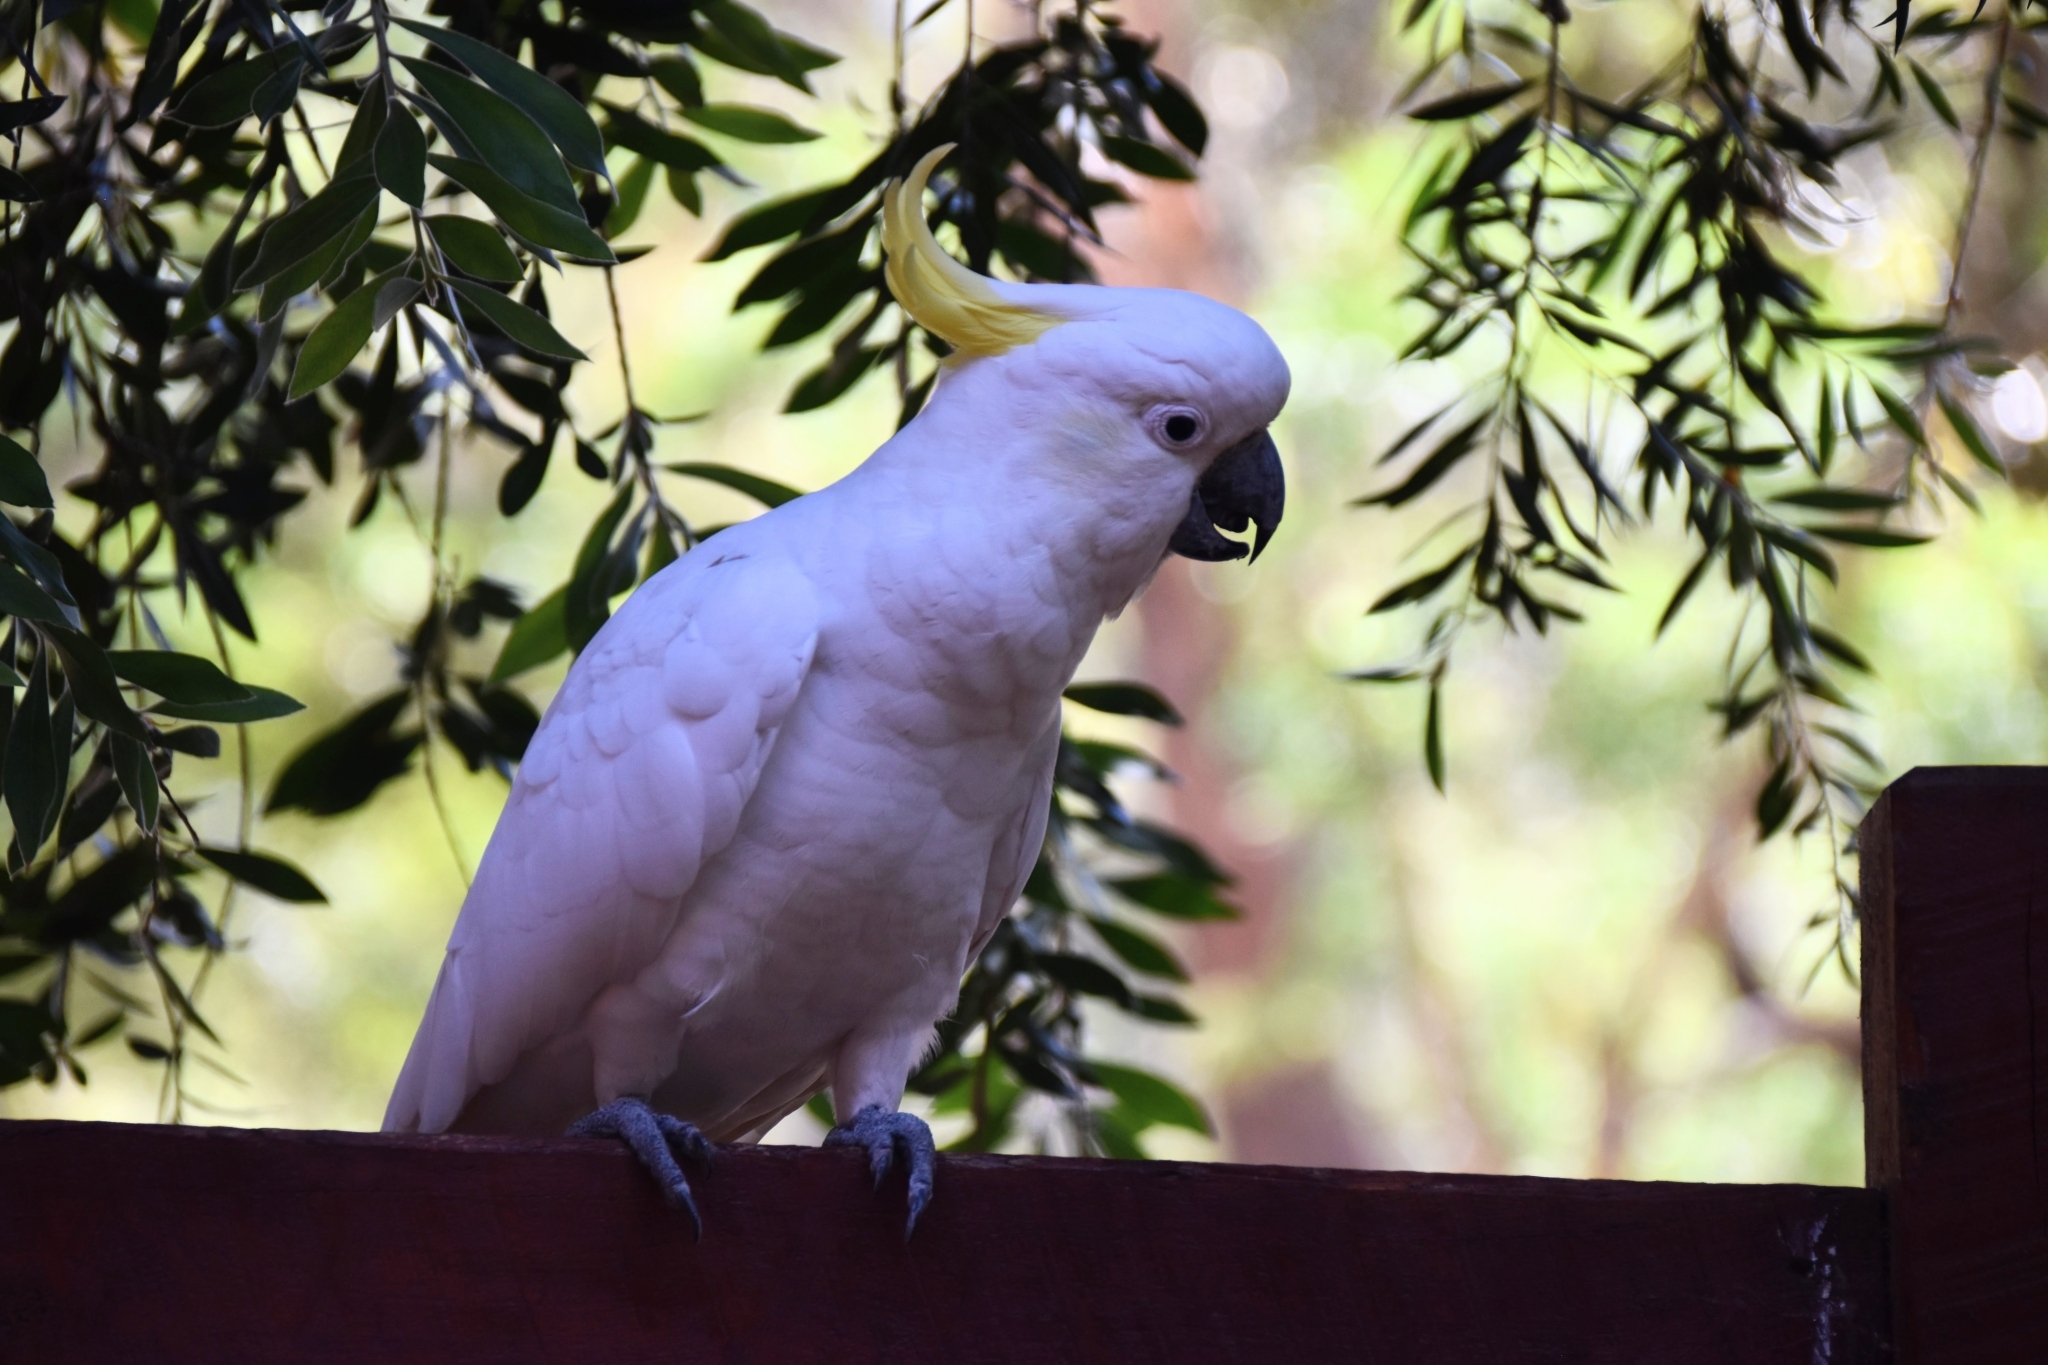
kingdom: Animalia
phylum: Chordata
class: Aves
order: Psittaciformes
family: Psittacidae
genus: Cacatua
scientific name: Cacatua galerita
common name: Sulphur-crested cockatoo
